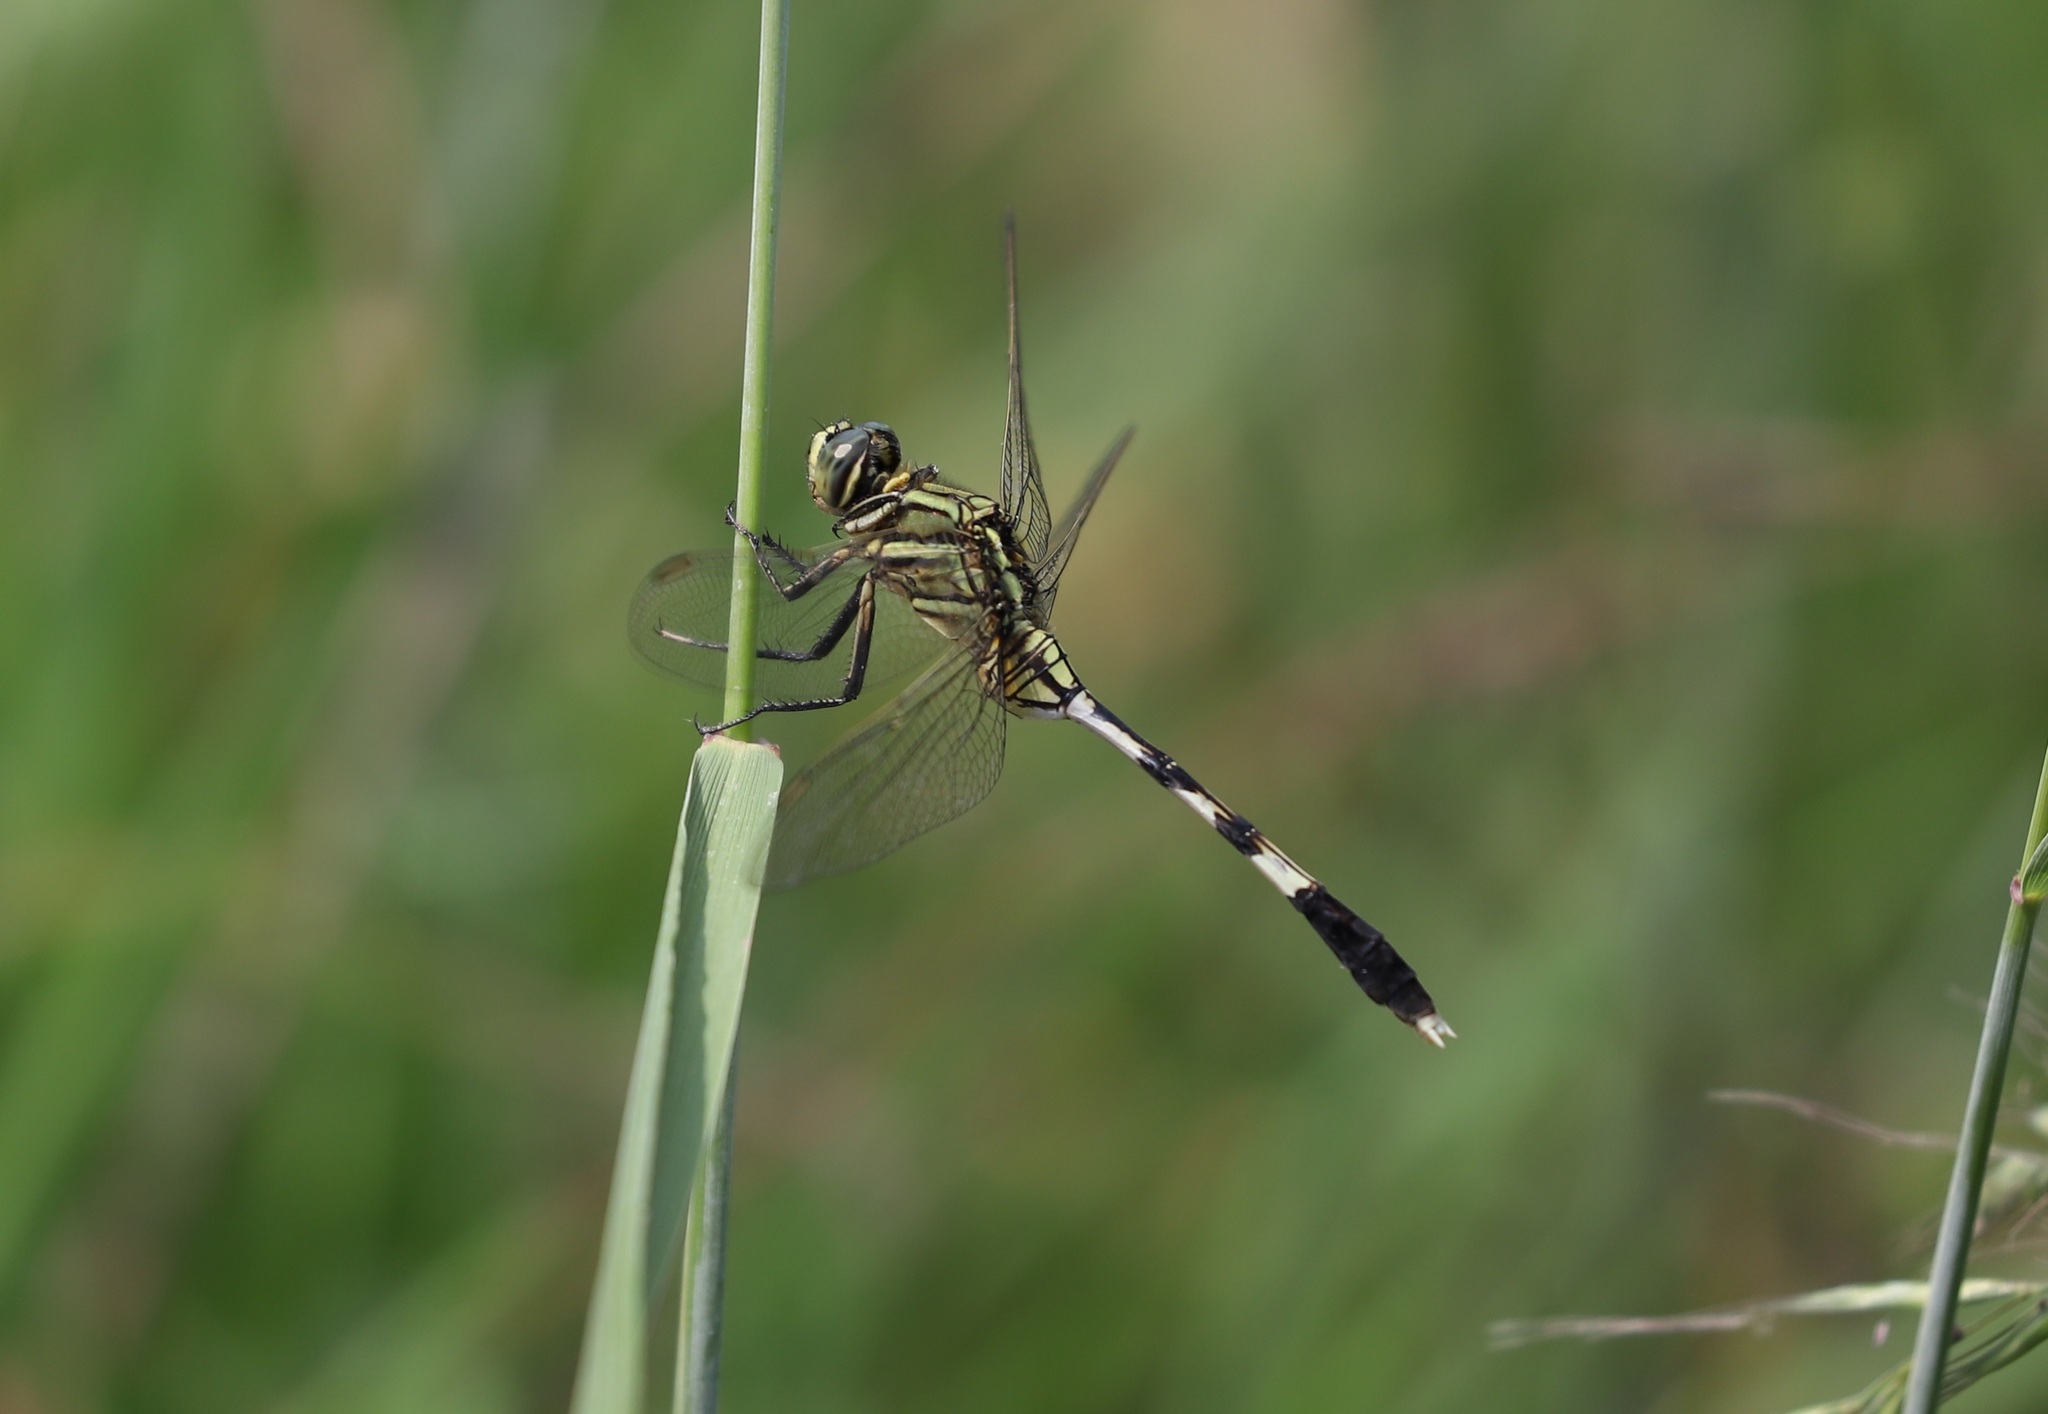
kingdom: Animalia
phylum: Arthropoda
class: Insecta
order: Odonata
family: Libellulidae
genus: Orthetrum
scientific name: Orthetrum sabina
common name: Slender skimmer
